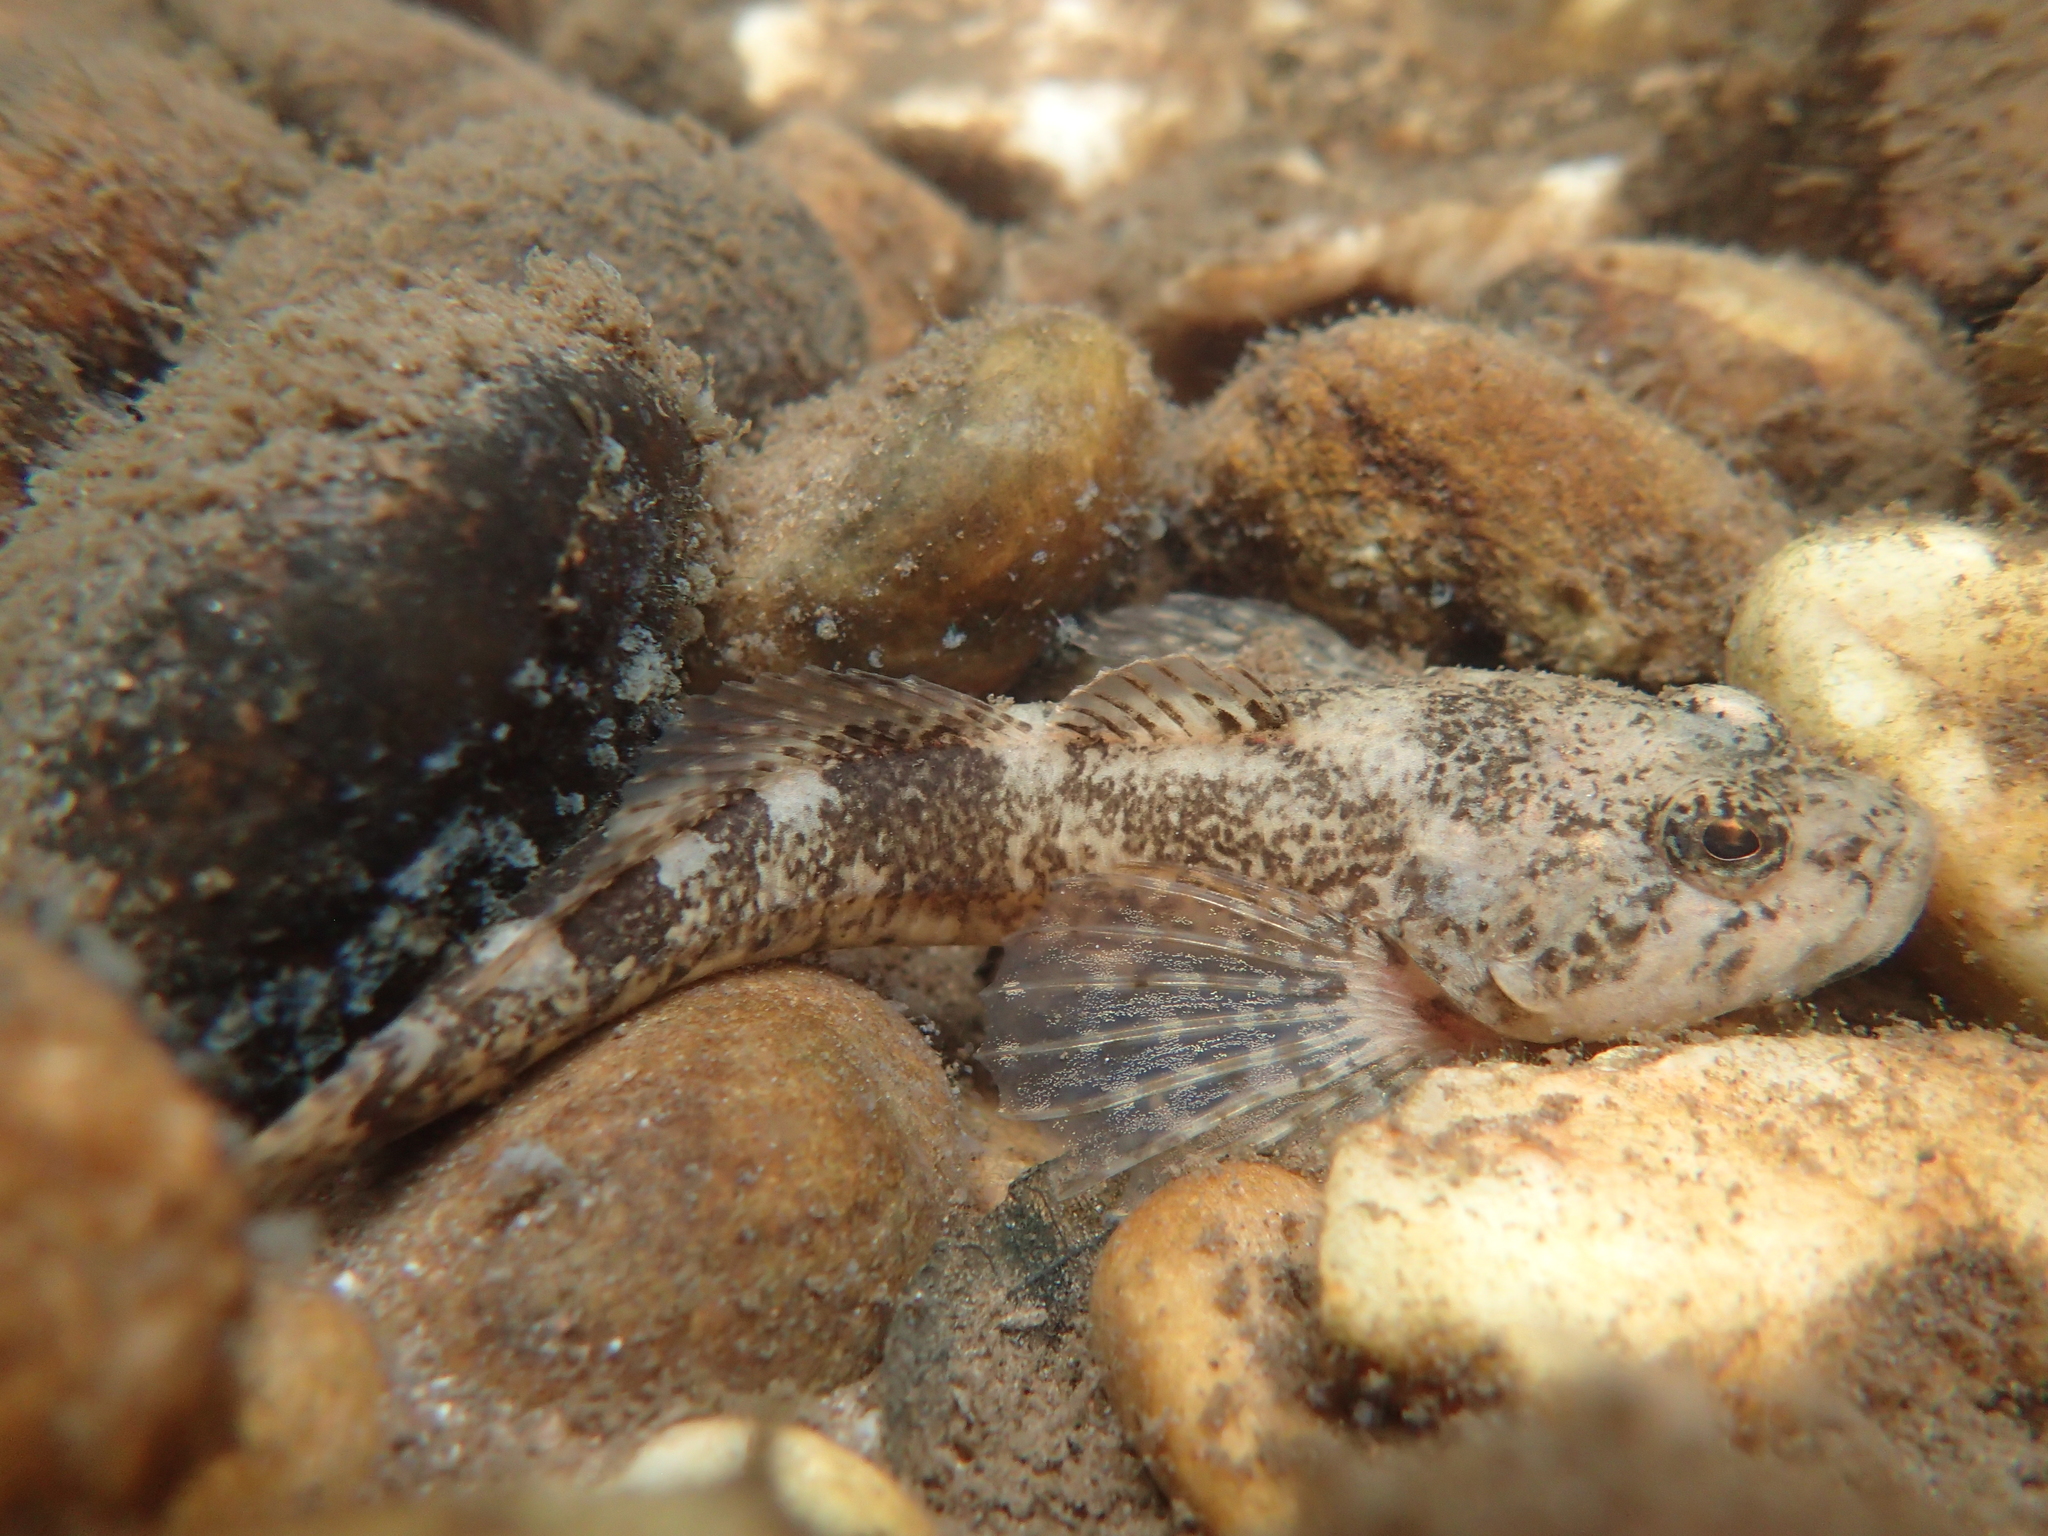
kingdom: Animalia
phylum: Chordata
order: Scorpaeniformes
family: Cottidae
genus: Cottus
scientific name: Cottus rhenanus
